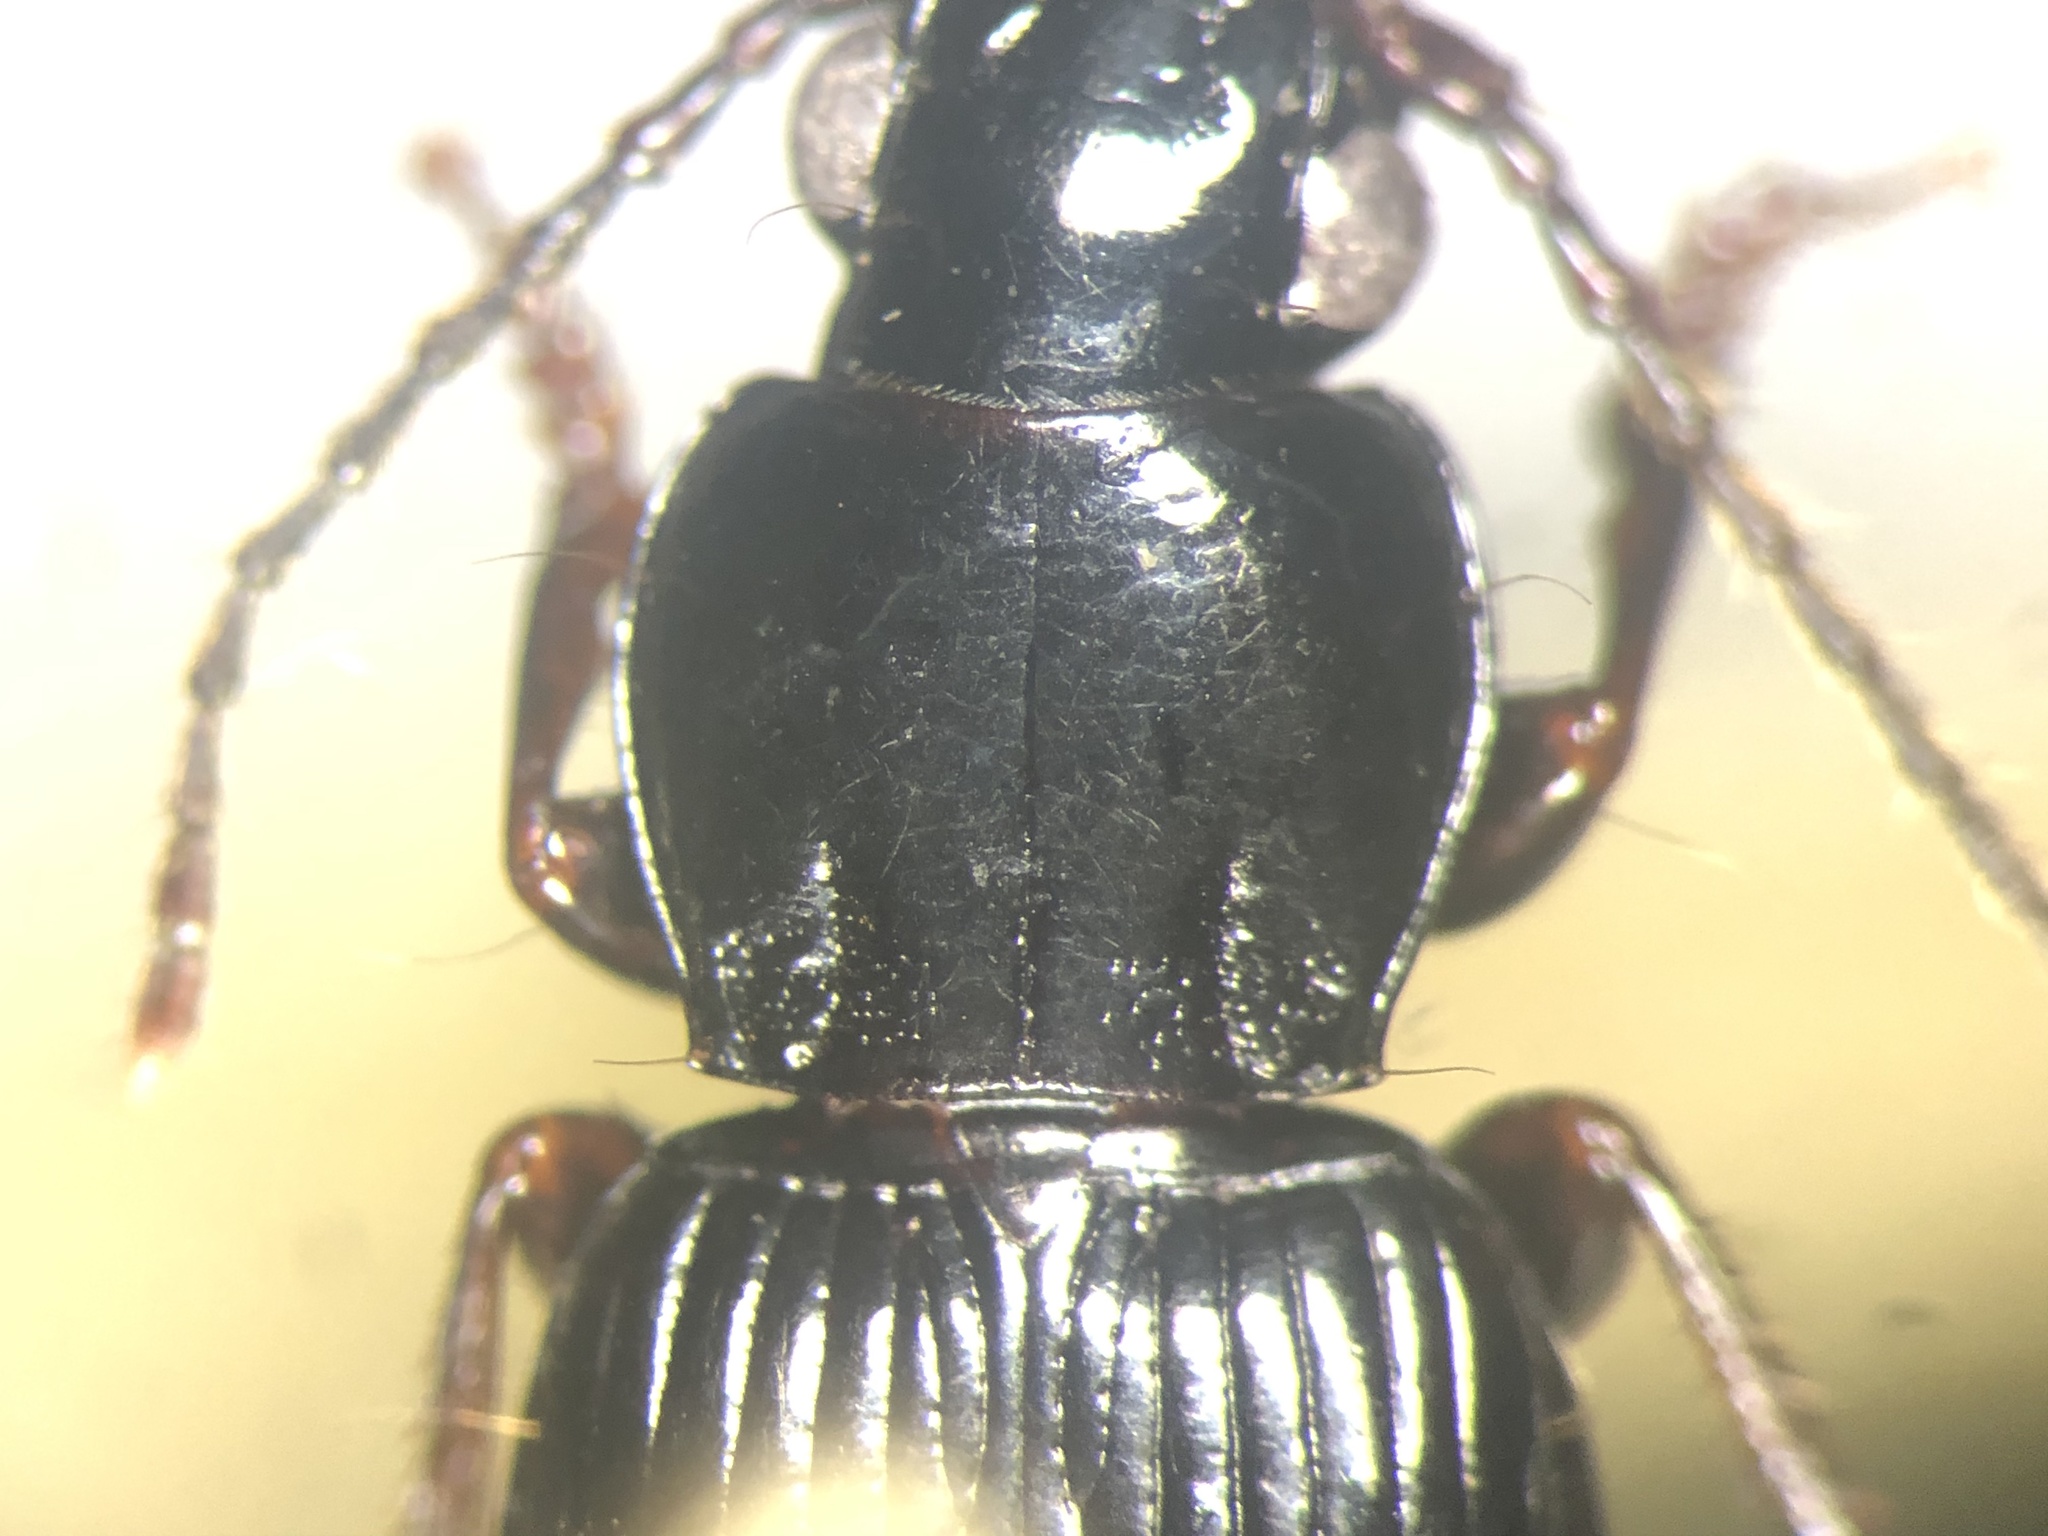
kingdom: Animalia
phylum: Arthropoda
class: Insecta
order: Coleoptera
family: Carabidae
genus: Pterostichus
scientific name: Pterostichus tenuis
